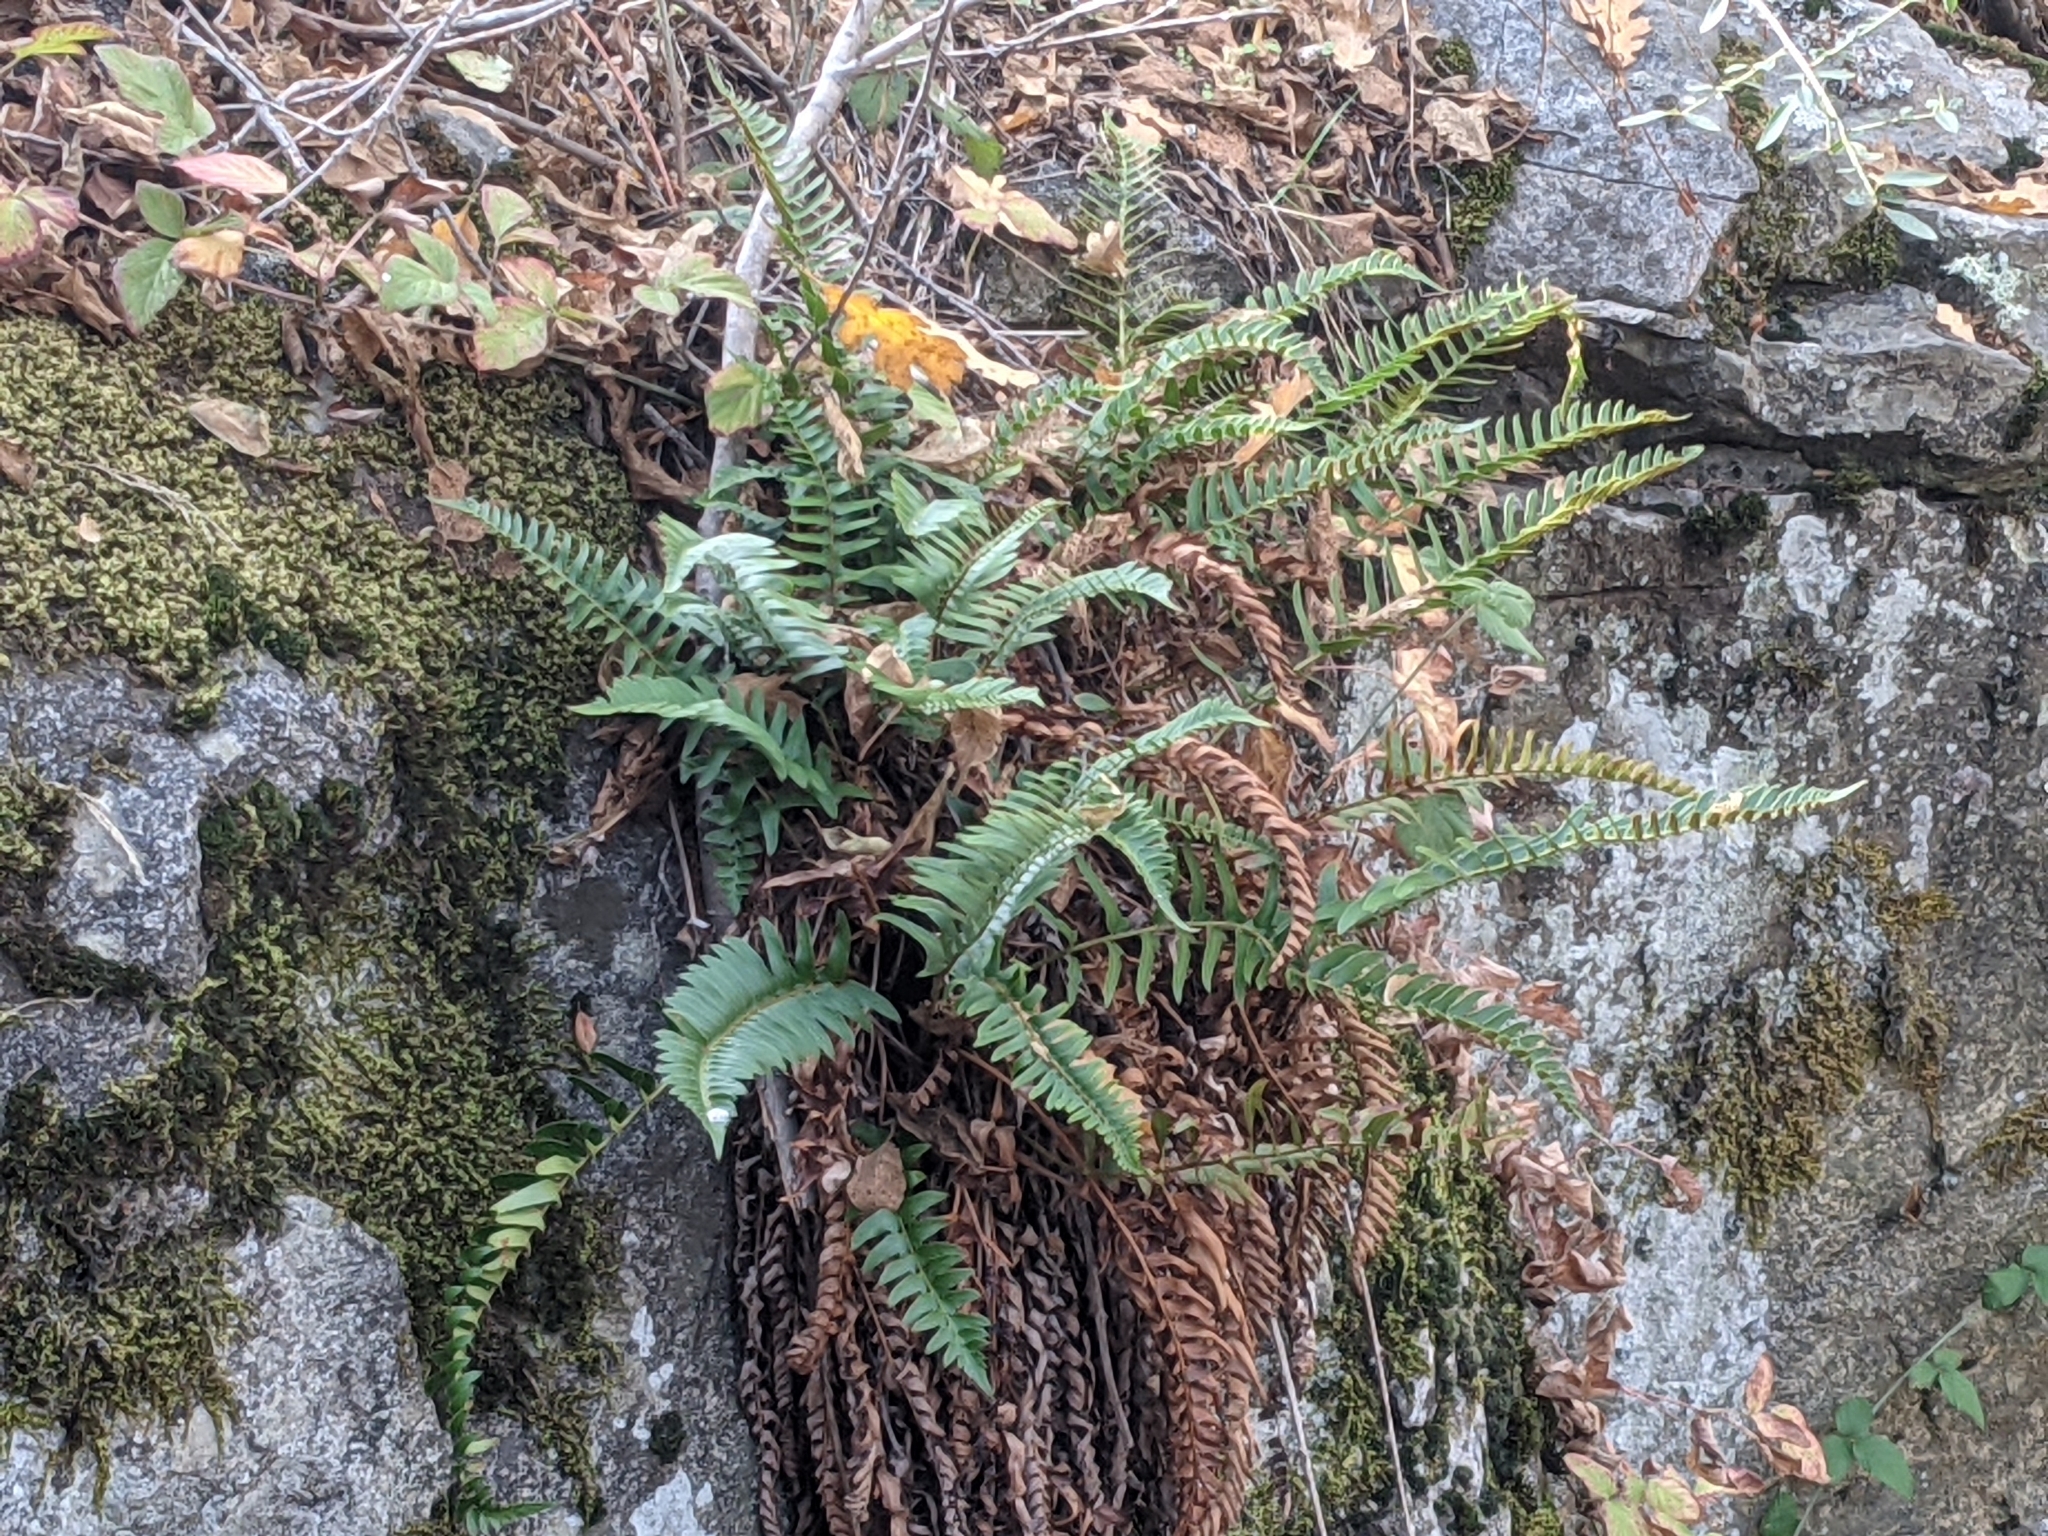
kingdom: Plantae
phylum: Tracheophyta
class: Polypodiopsida
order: Polypodiales
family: Dryopteridaceae
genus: Polystichum
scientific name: Polystichum imbricans
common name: Dwarf western sword fern
